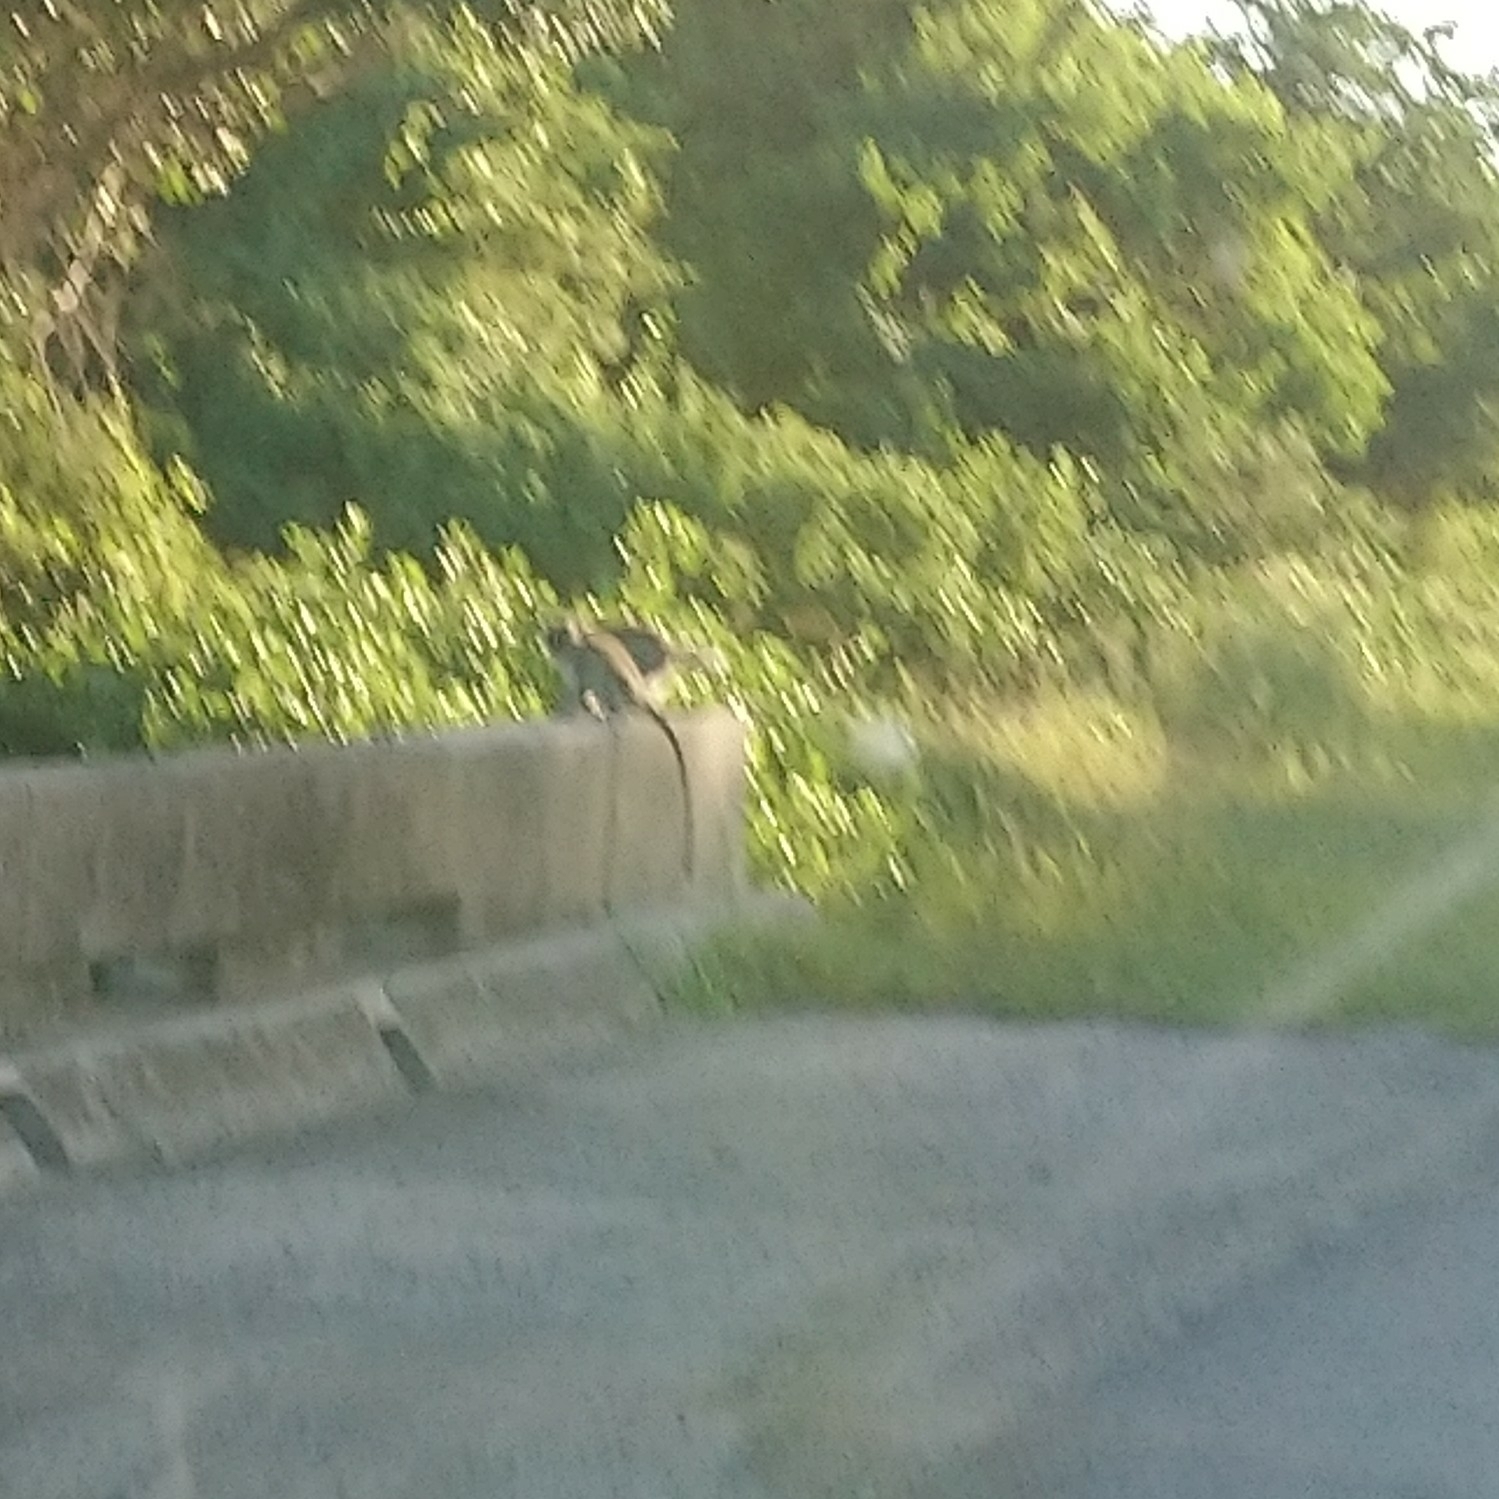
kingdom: Animalia
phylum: Chordata
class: Mammalia
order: Primates
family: Cercopithecidae
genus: Chlorocebus
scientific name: Chlorocebus pygerythrus
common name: Vervet monkey
